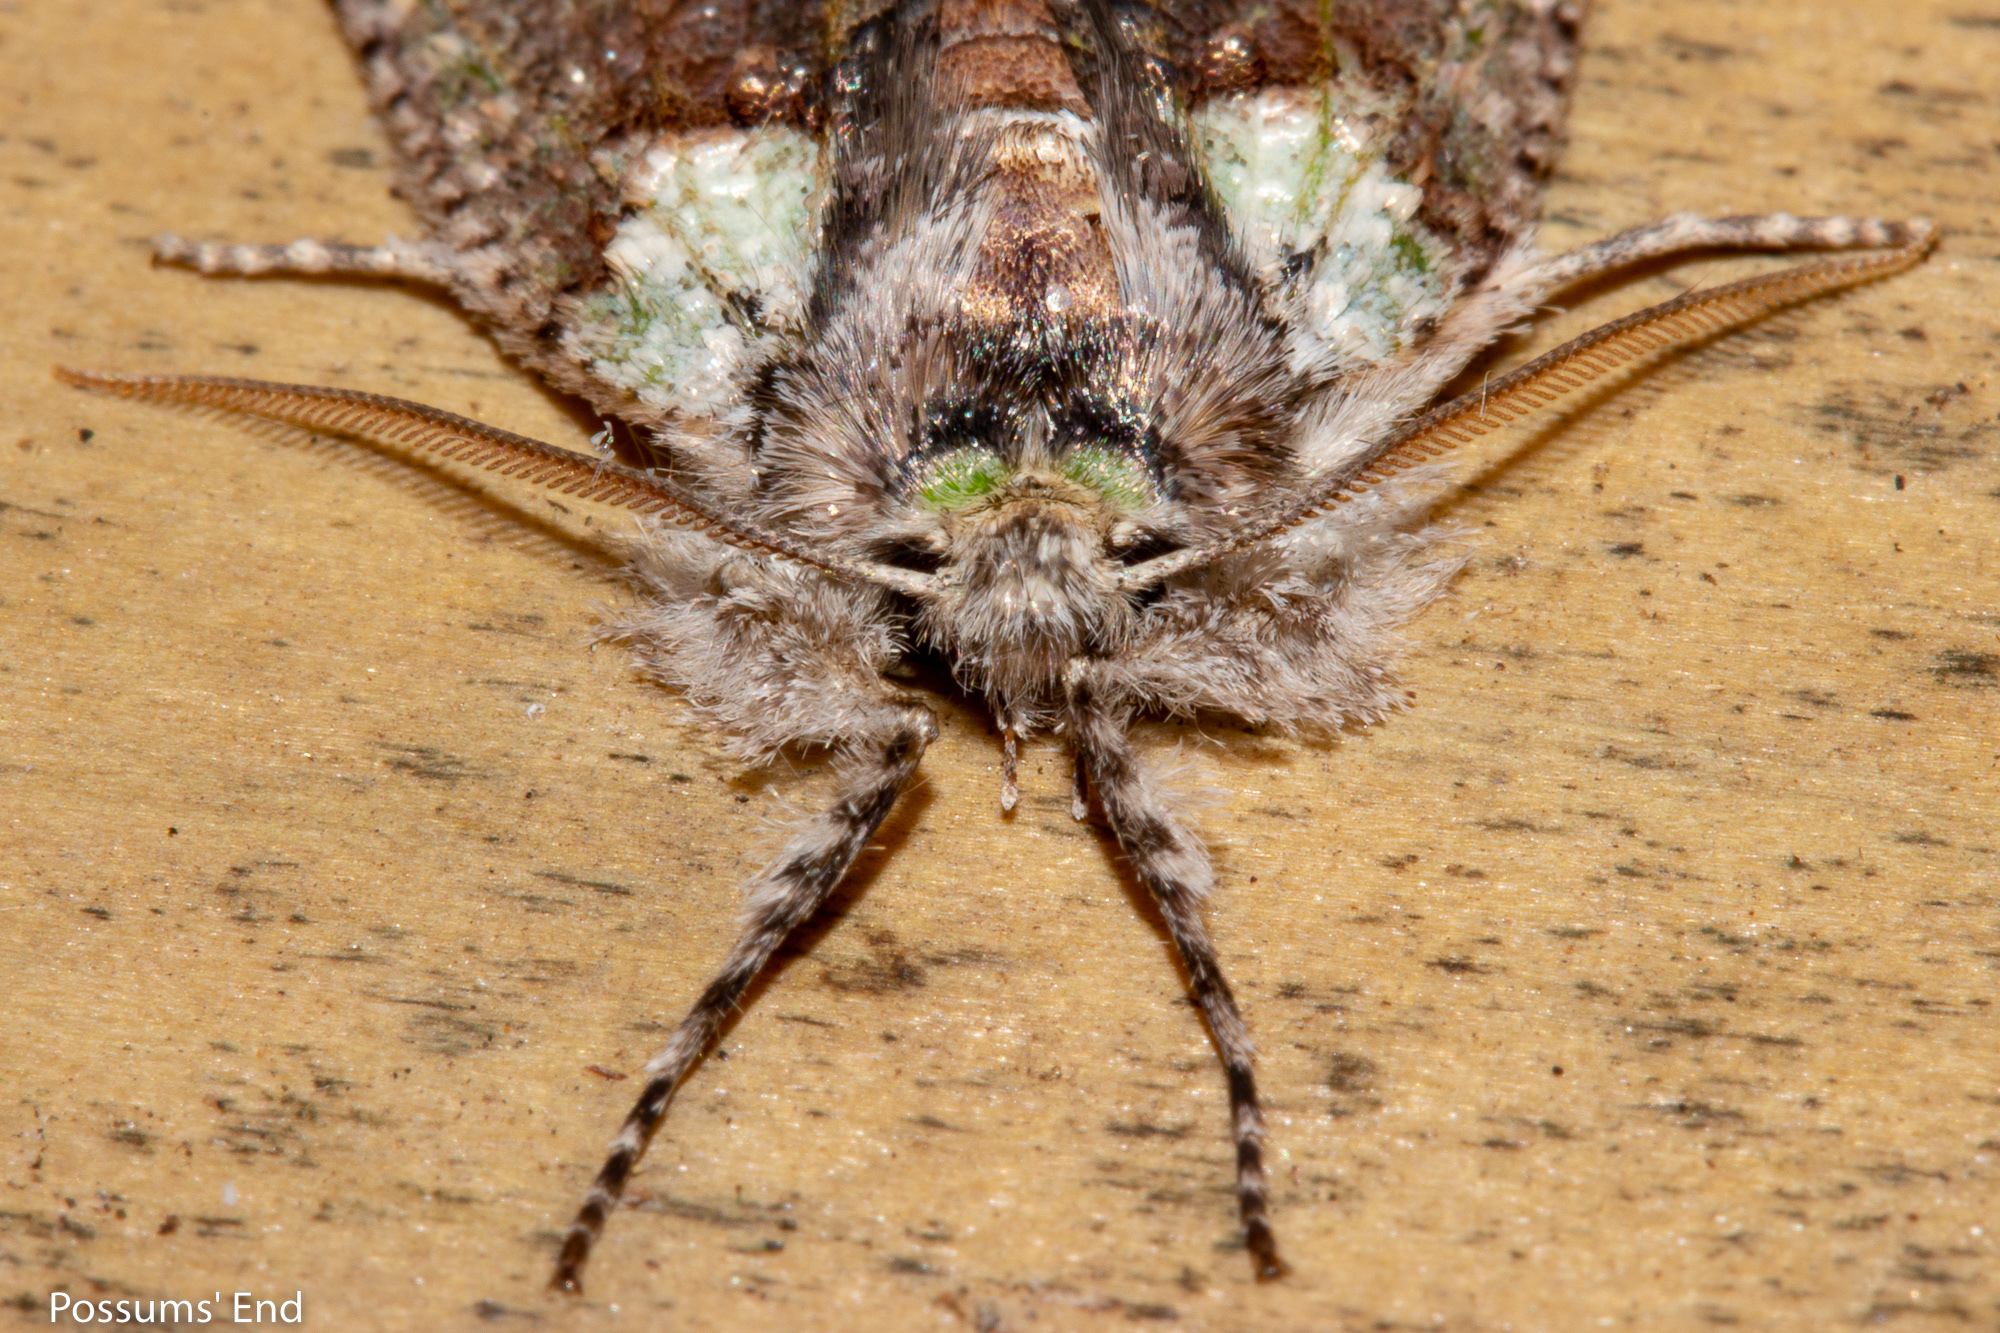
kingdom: Animalia
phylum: Arthropoda
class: Insecta
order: Lepidoptera
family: Geometridae
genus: Declana
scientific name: Declana floccosa
